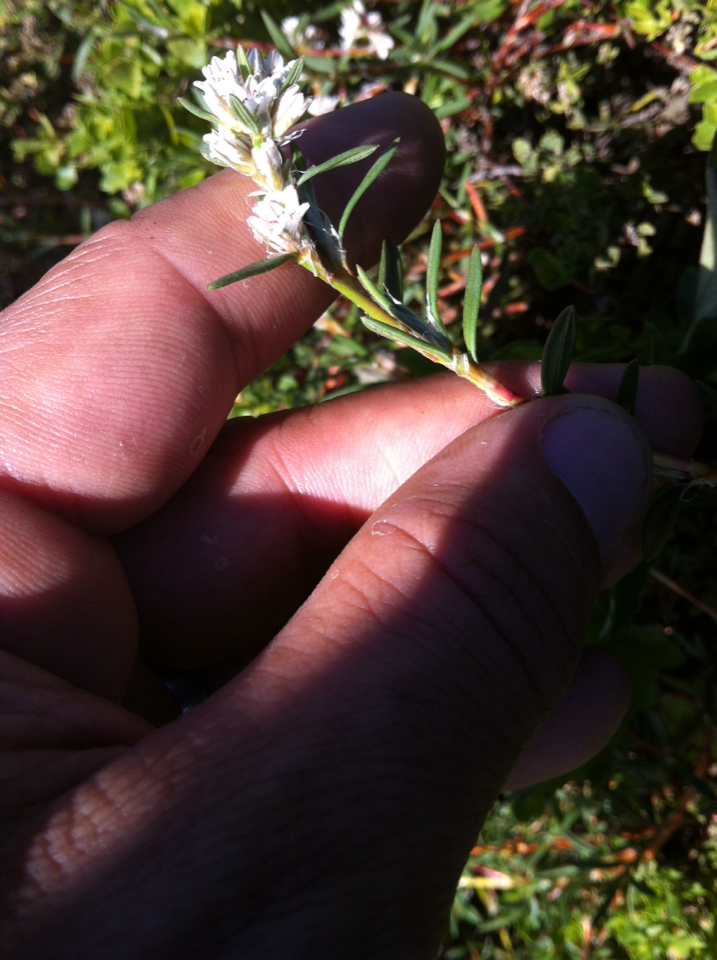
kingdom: Plantae
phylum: Tracheophyta
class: Magnoliopsida
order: Caryophyllales
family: Polygonaceae
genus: Polygonum
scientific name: Polygonum paronychia
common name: Dune knotweed
